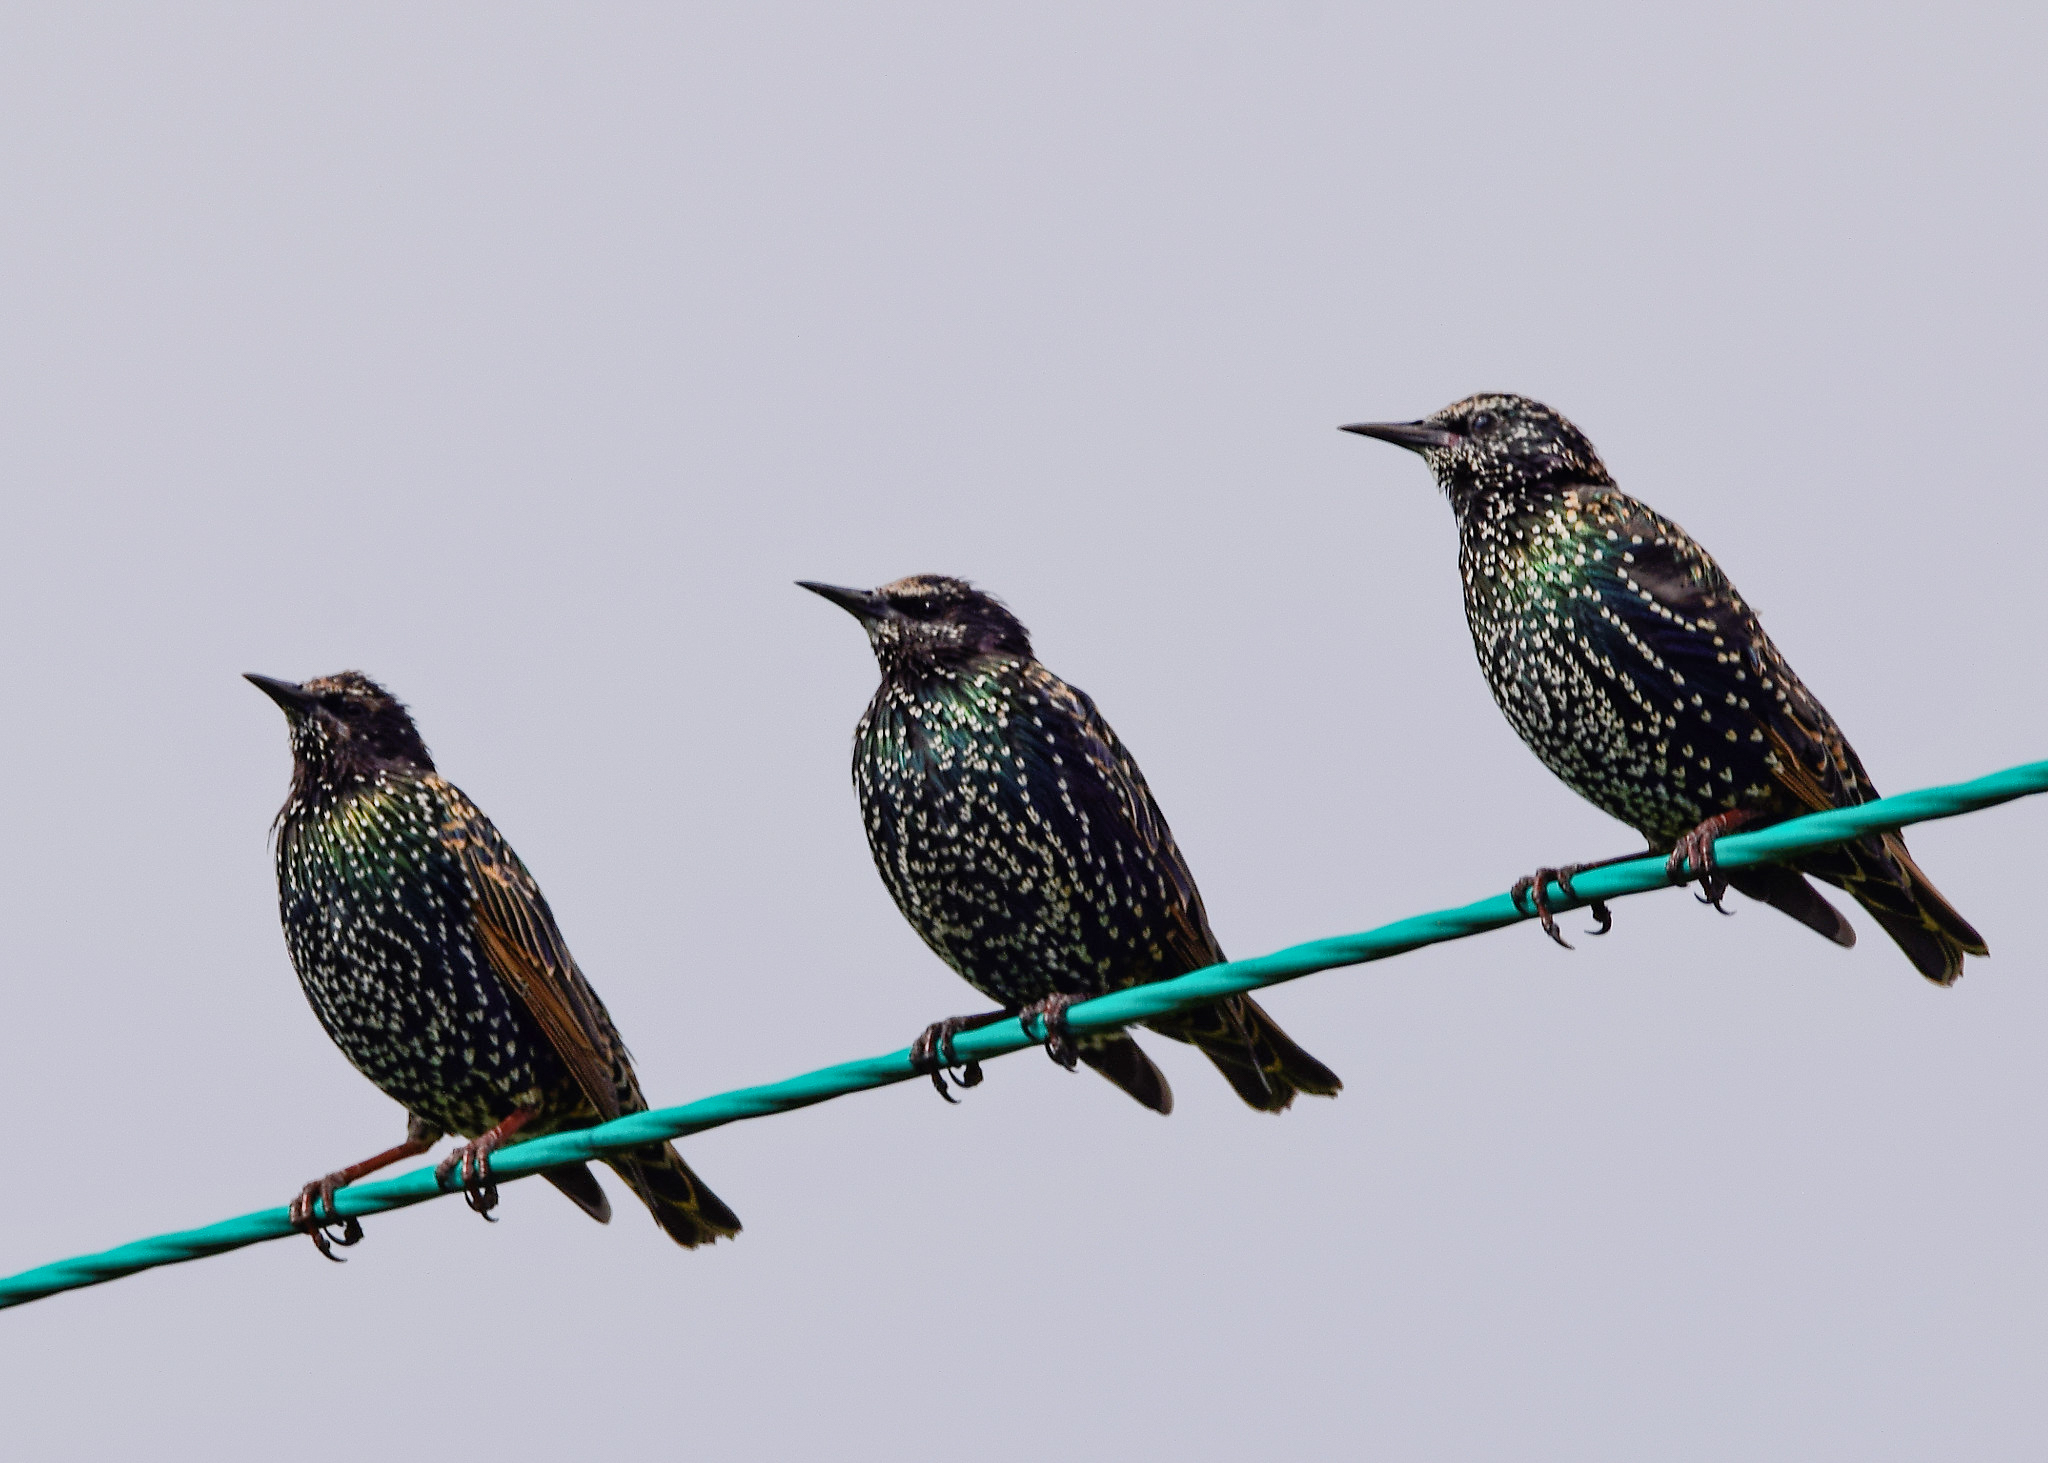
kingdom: Animalia
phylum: Chordata
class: Aves
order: Passeriformes
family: Sturnidae
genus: Sturnus
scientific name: Sturnus vulgaris
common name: Common starling
